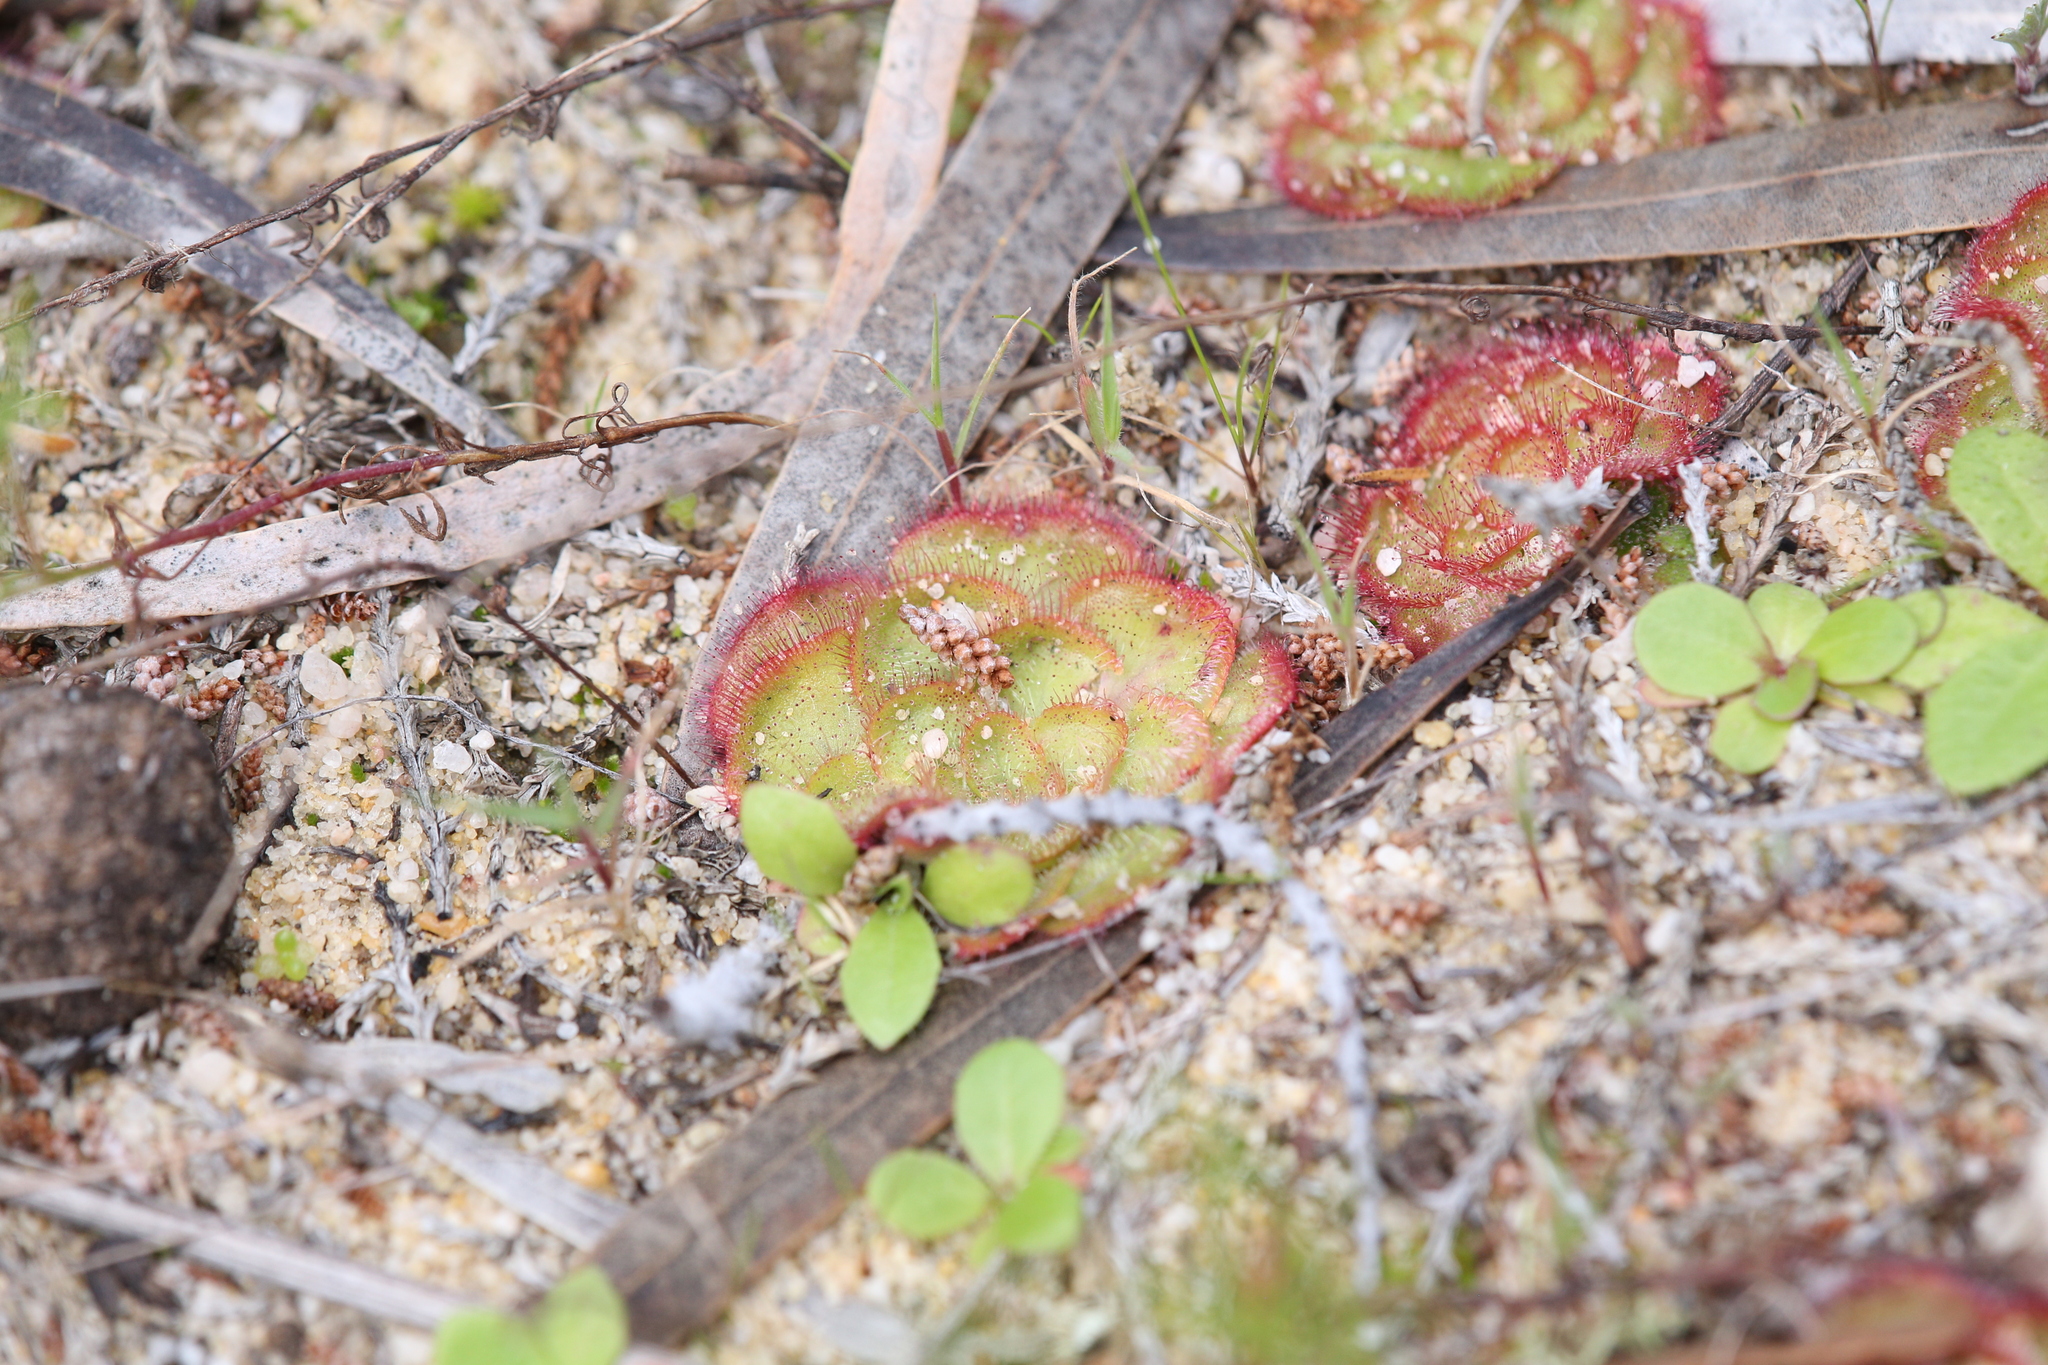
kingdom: Plantae
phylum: Tracheophyta
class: Magnoliopsida
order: Caryophyllales
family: Droseraceae
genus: Drosera
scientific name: Drosera zonaria
